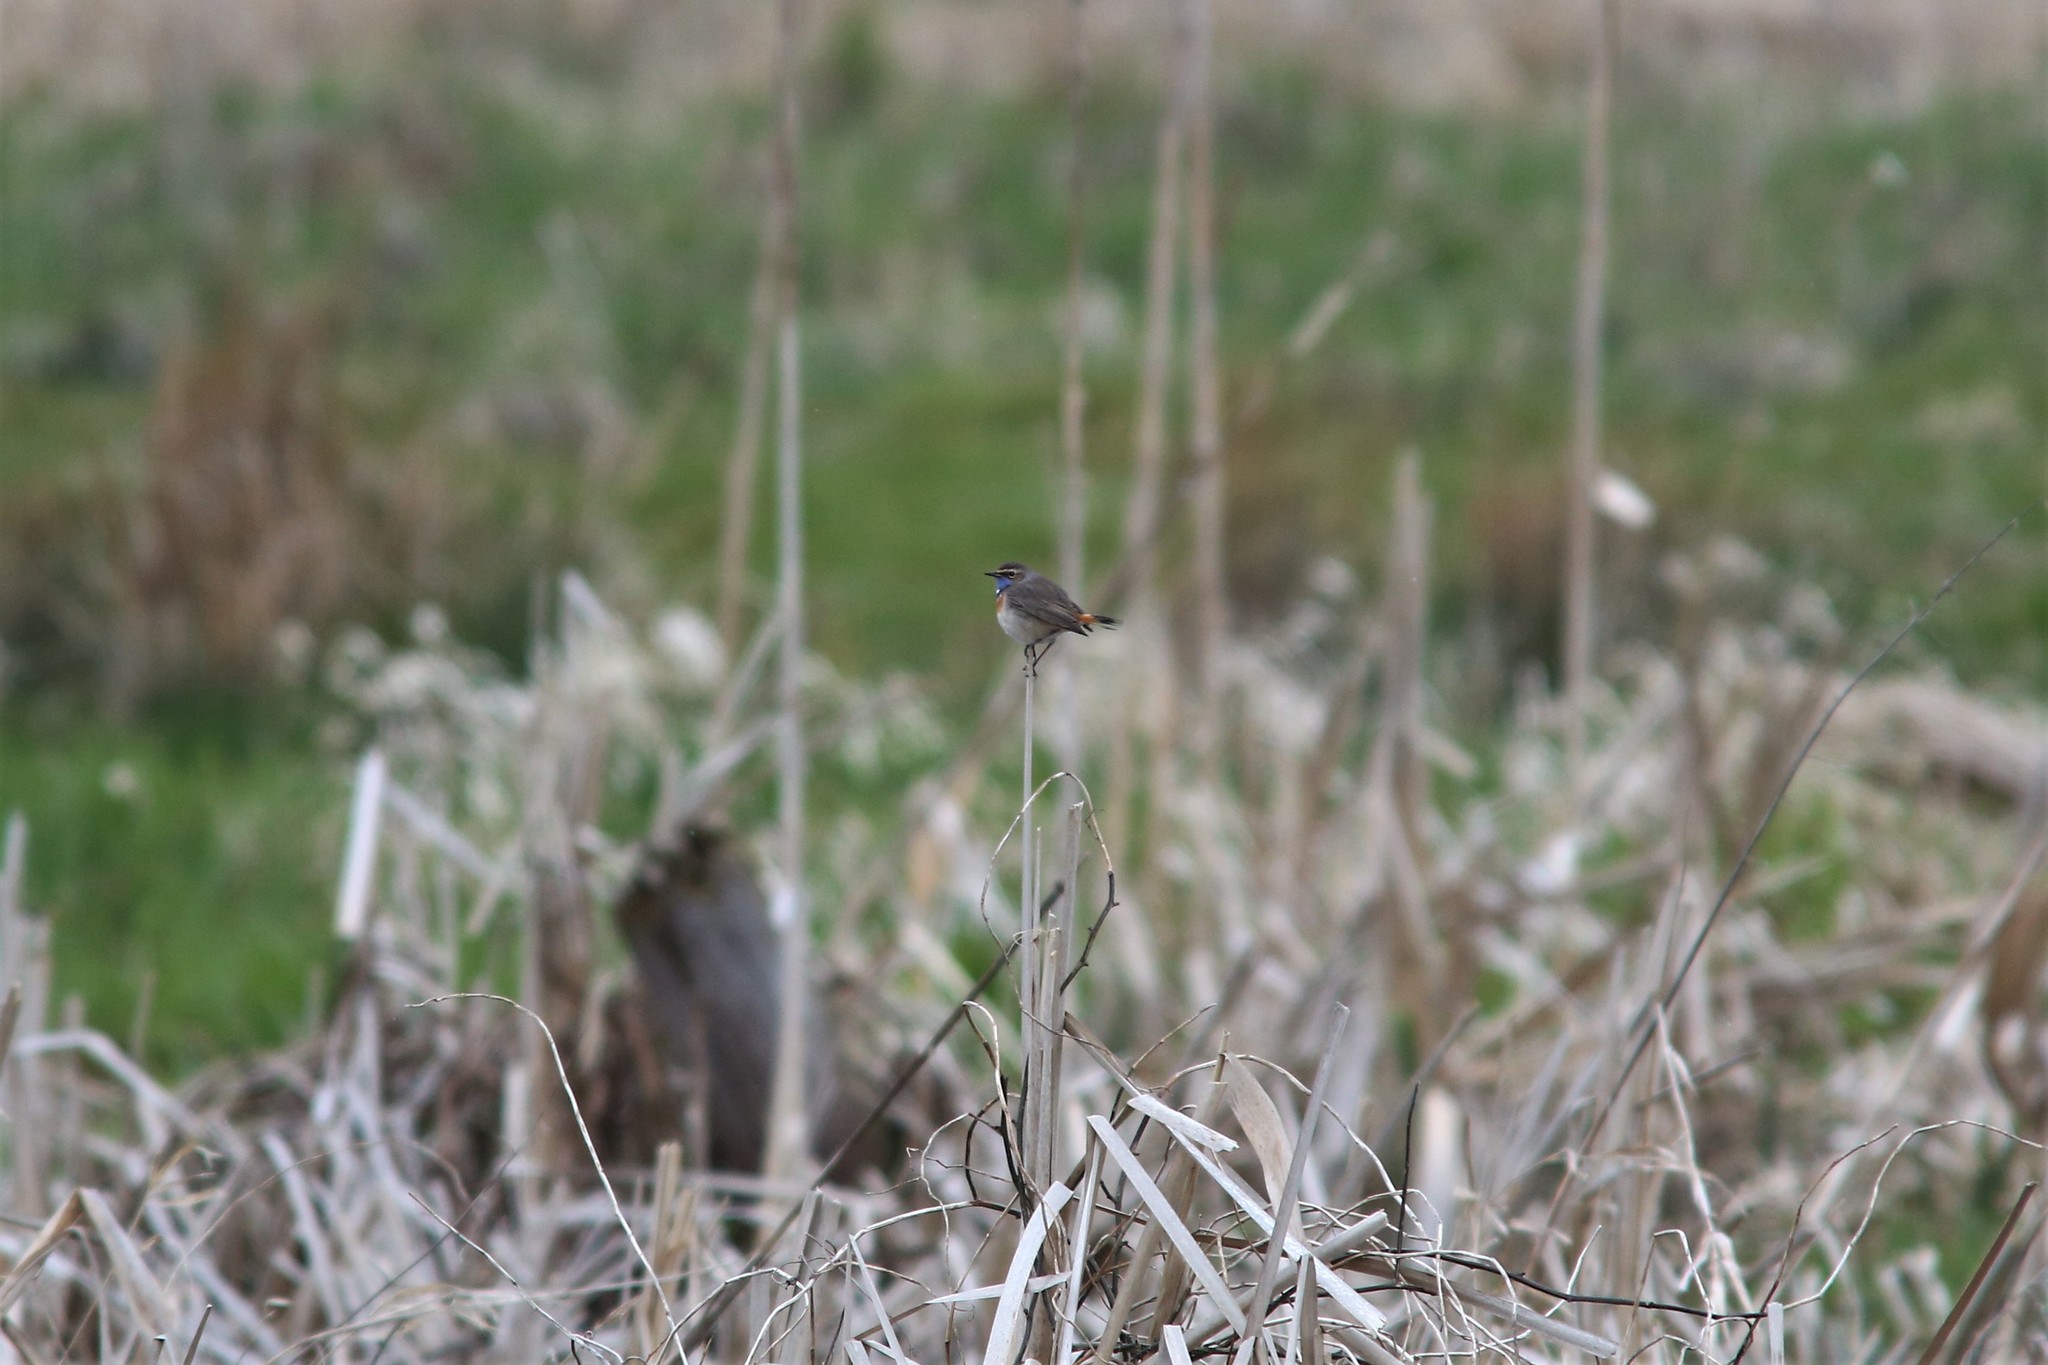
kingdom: Animalia
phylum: Chordata
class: Aves
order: Passeriformes
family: Muscicapidae
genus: Luscinia
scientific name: Luscinia svecica
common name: Bluethroat
